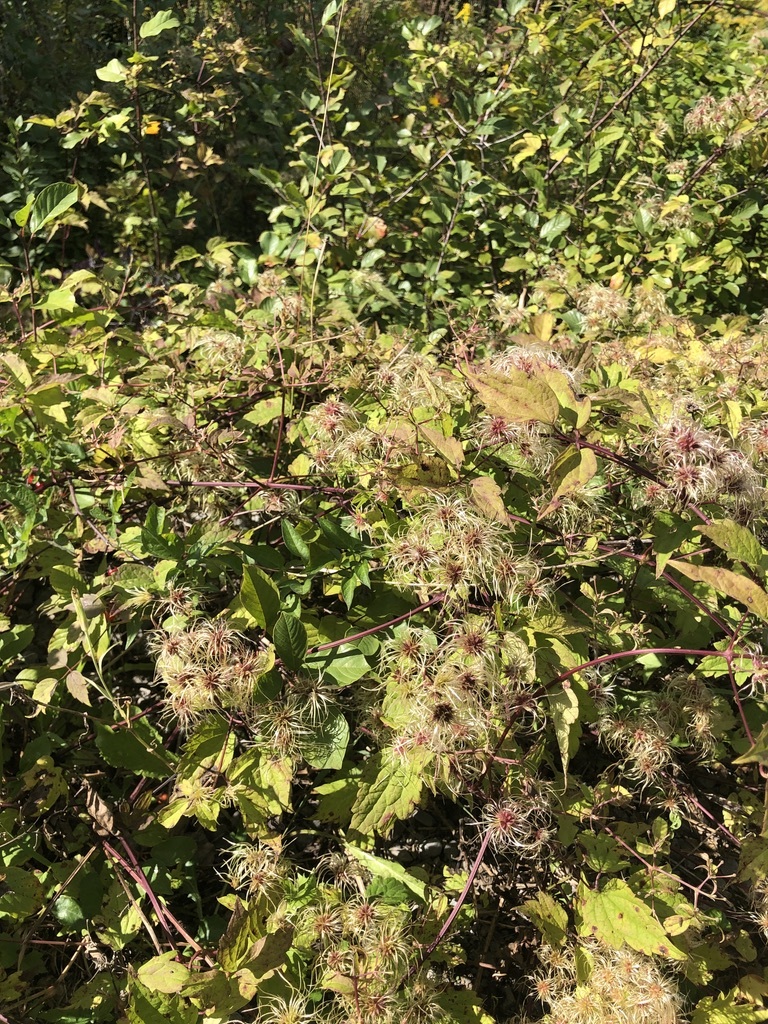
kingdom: Plantae
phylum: Tracheophyta
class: Magnoliopsida
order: Ranunculales
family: Ranunculaceae
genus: Clematis
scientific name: Clematis virginiana
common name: Virgin's-bower
